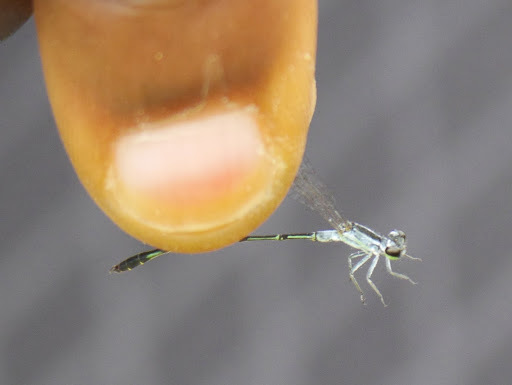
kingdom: Animalia
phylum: Arthropoda
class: Insecta
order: Odonata
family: Coenagrionidae
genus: Agriocnemis
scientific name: Agriocnemis victoria
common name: Lesser pincer-tailed wisp
